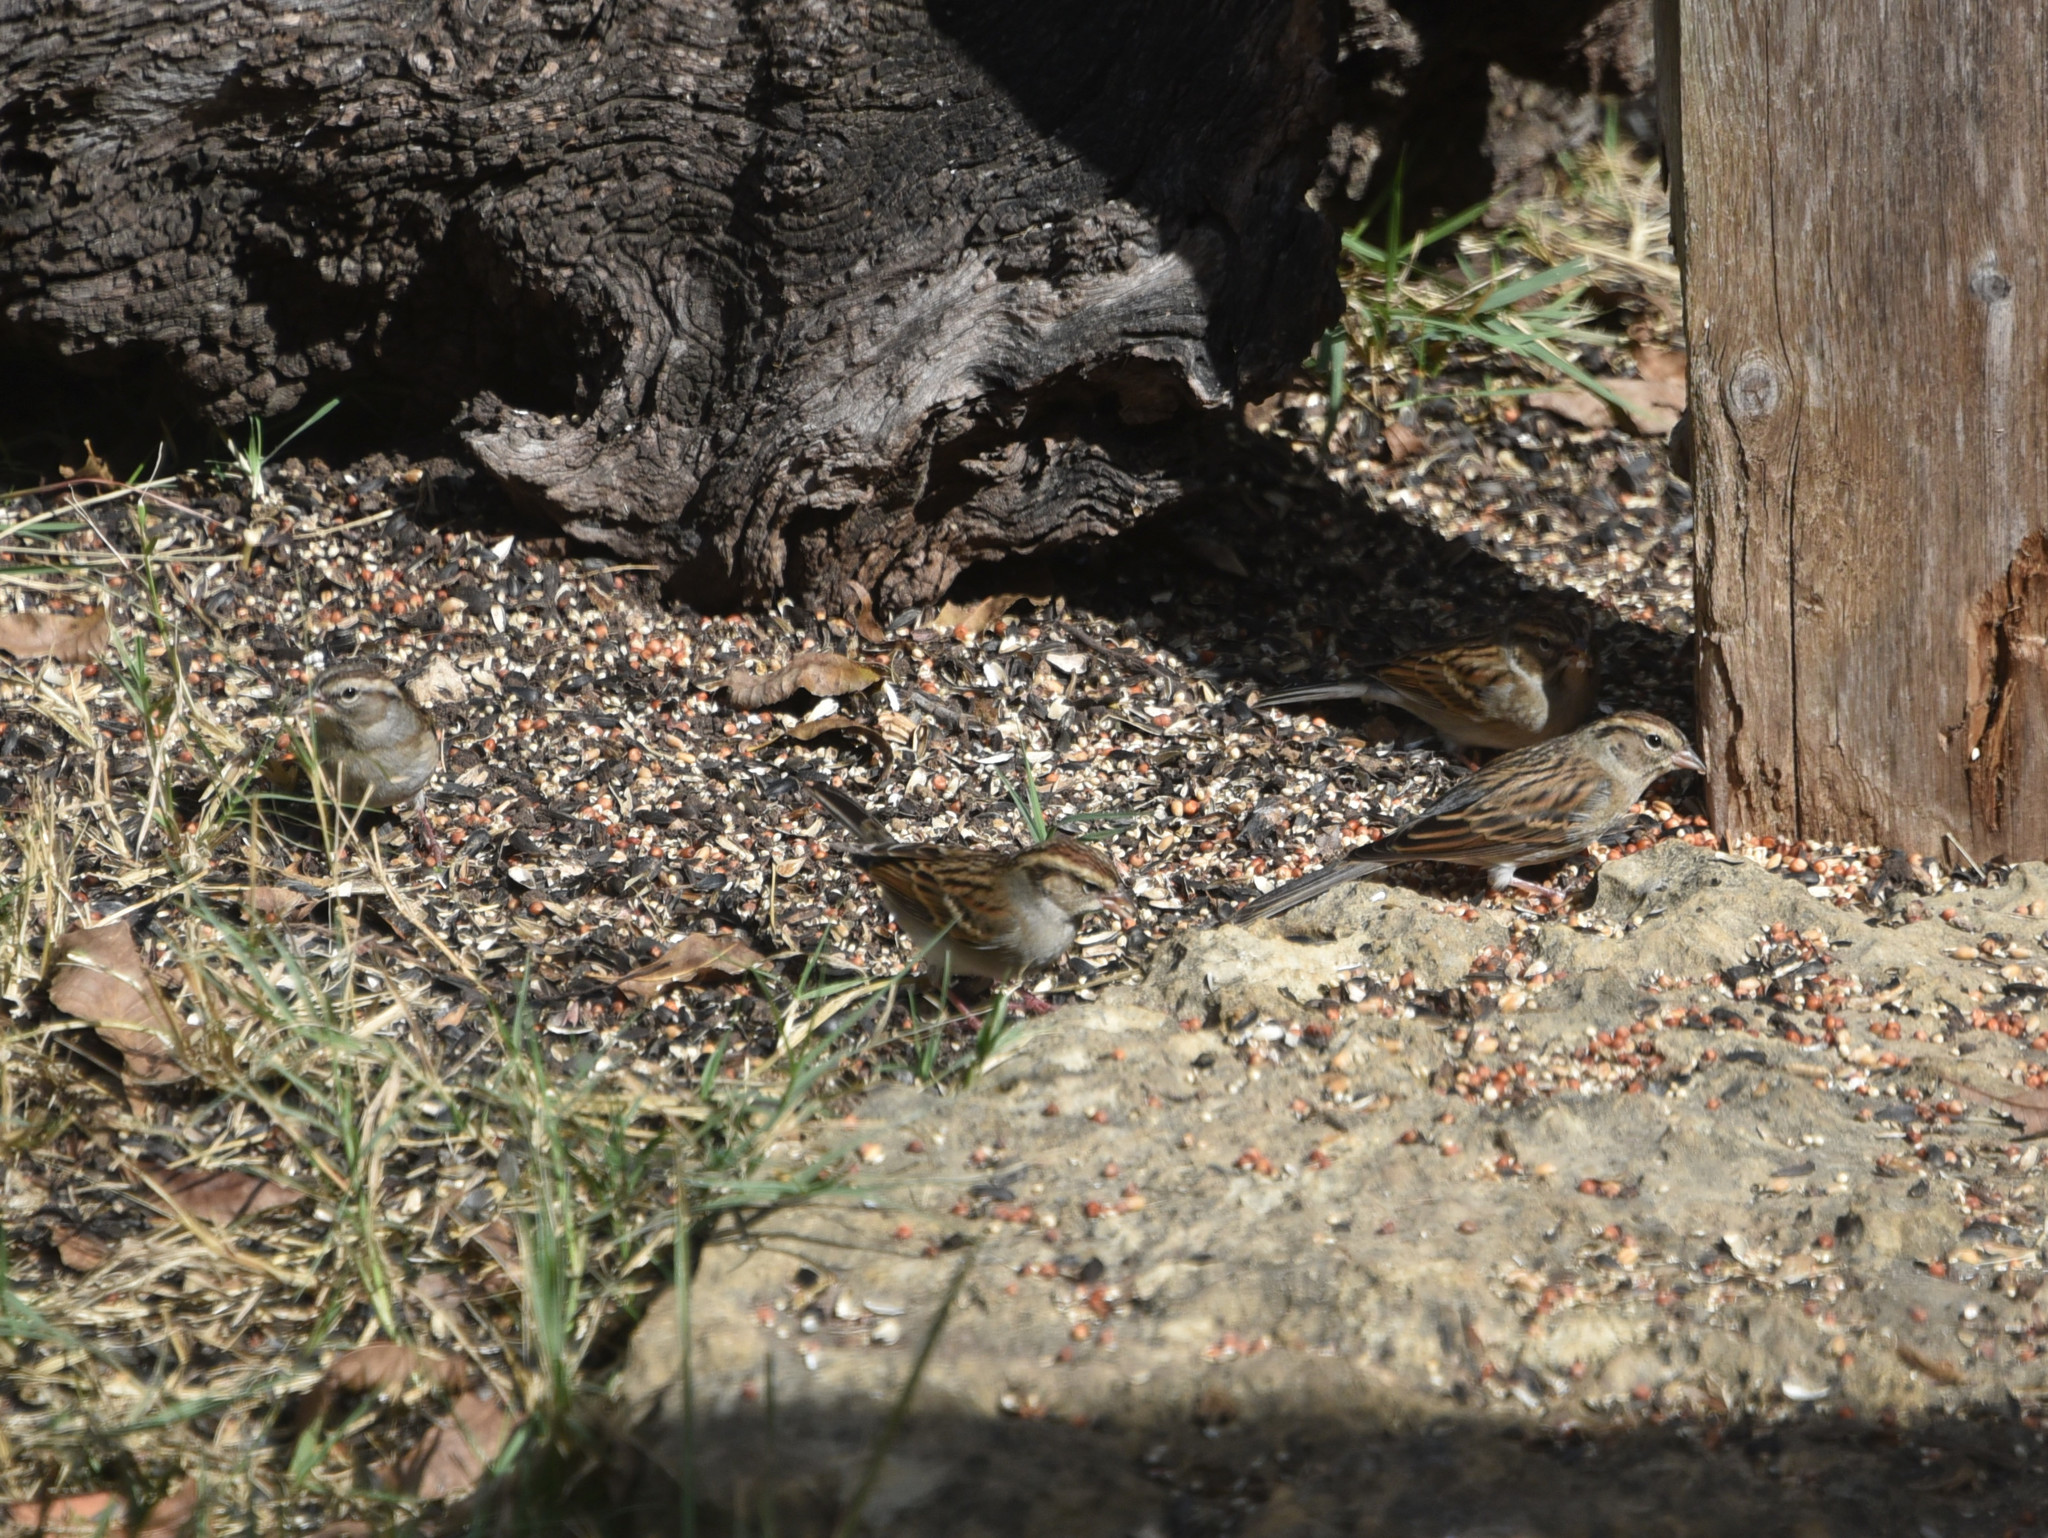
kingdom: Animalia
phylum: Chordata
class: Aves
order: Passeriformes
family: Passerellidae
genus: Spizella
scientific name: Spizella passerina
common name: Chipping sparrow
